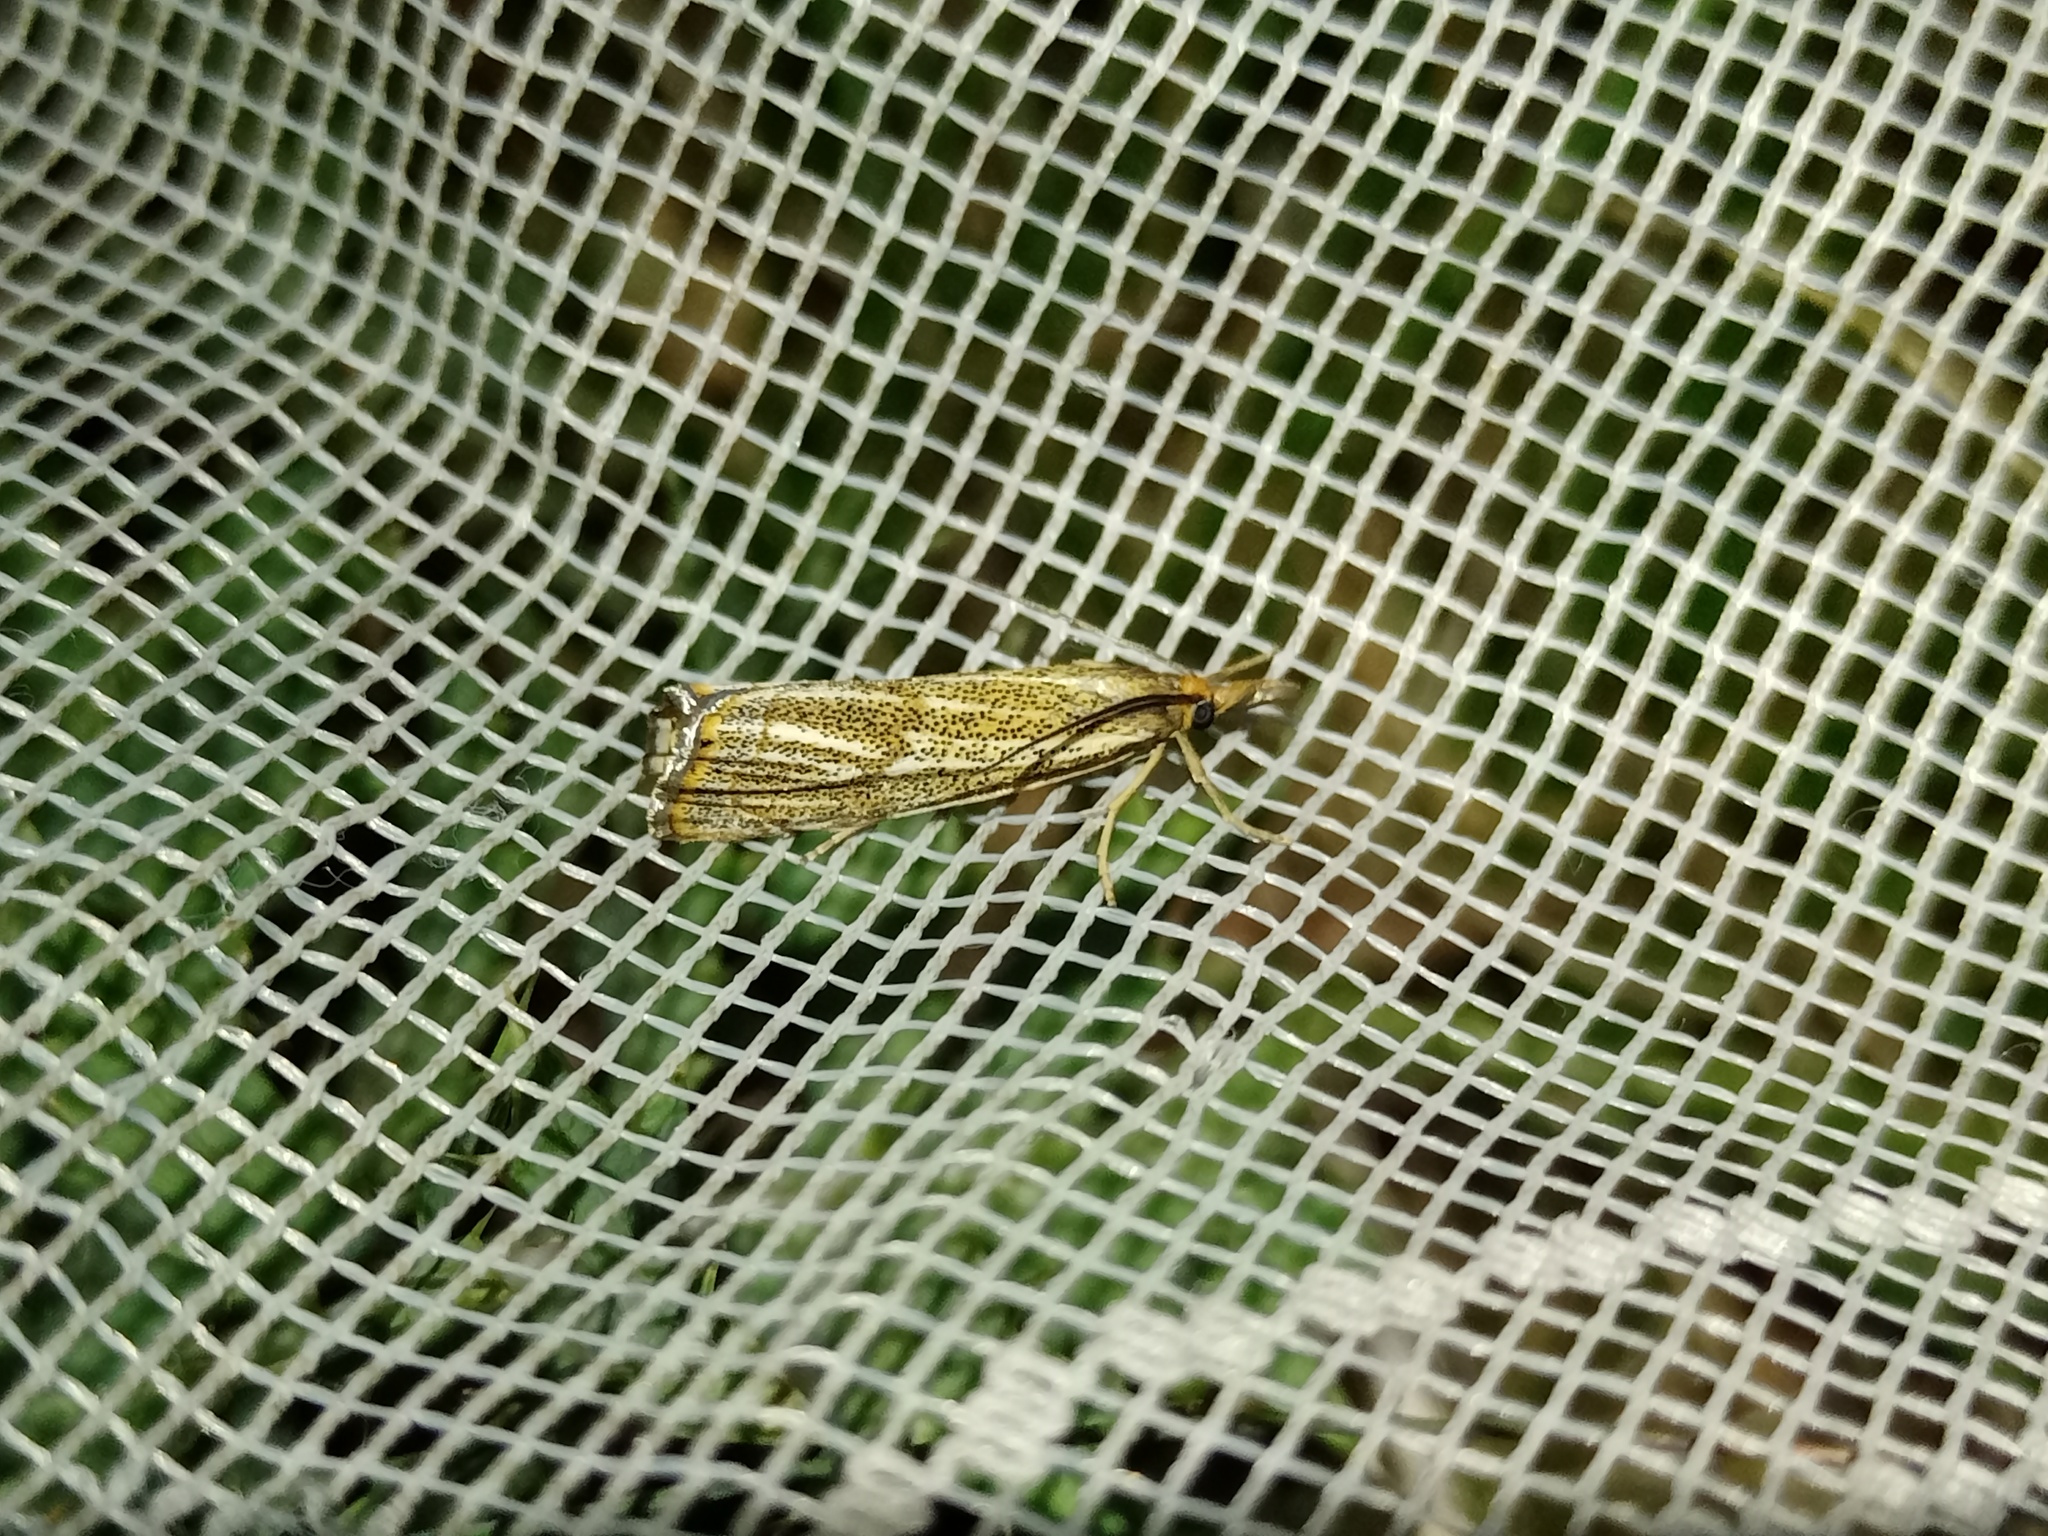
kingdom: Animalia
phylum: Arthropoda
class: Insecta
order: Lepidoptera
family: Crambidae
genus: Thisanotia
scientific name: Thisanotia chrysonuchella
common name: Powdered grass-veneer
